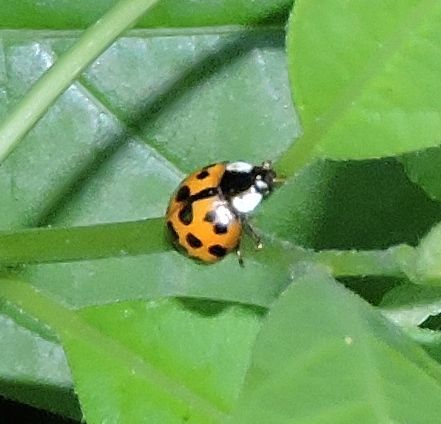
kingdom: Animalia
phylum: Arthropoda
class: Insecta
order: Coleoptera
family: Coccinellidae
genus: Harmonia
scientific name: Harmonia axyridis
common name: Harlequin ladybird
